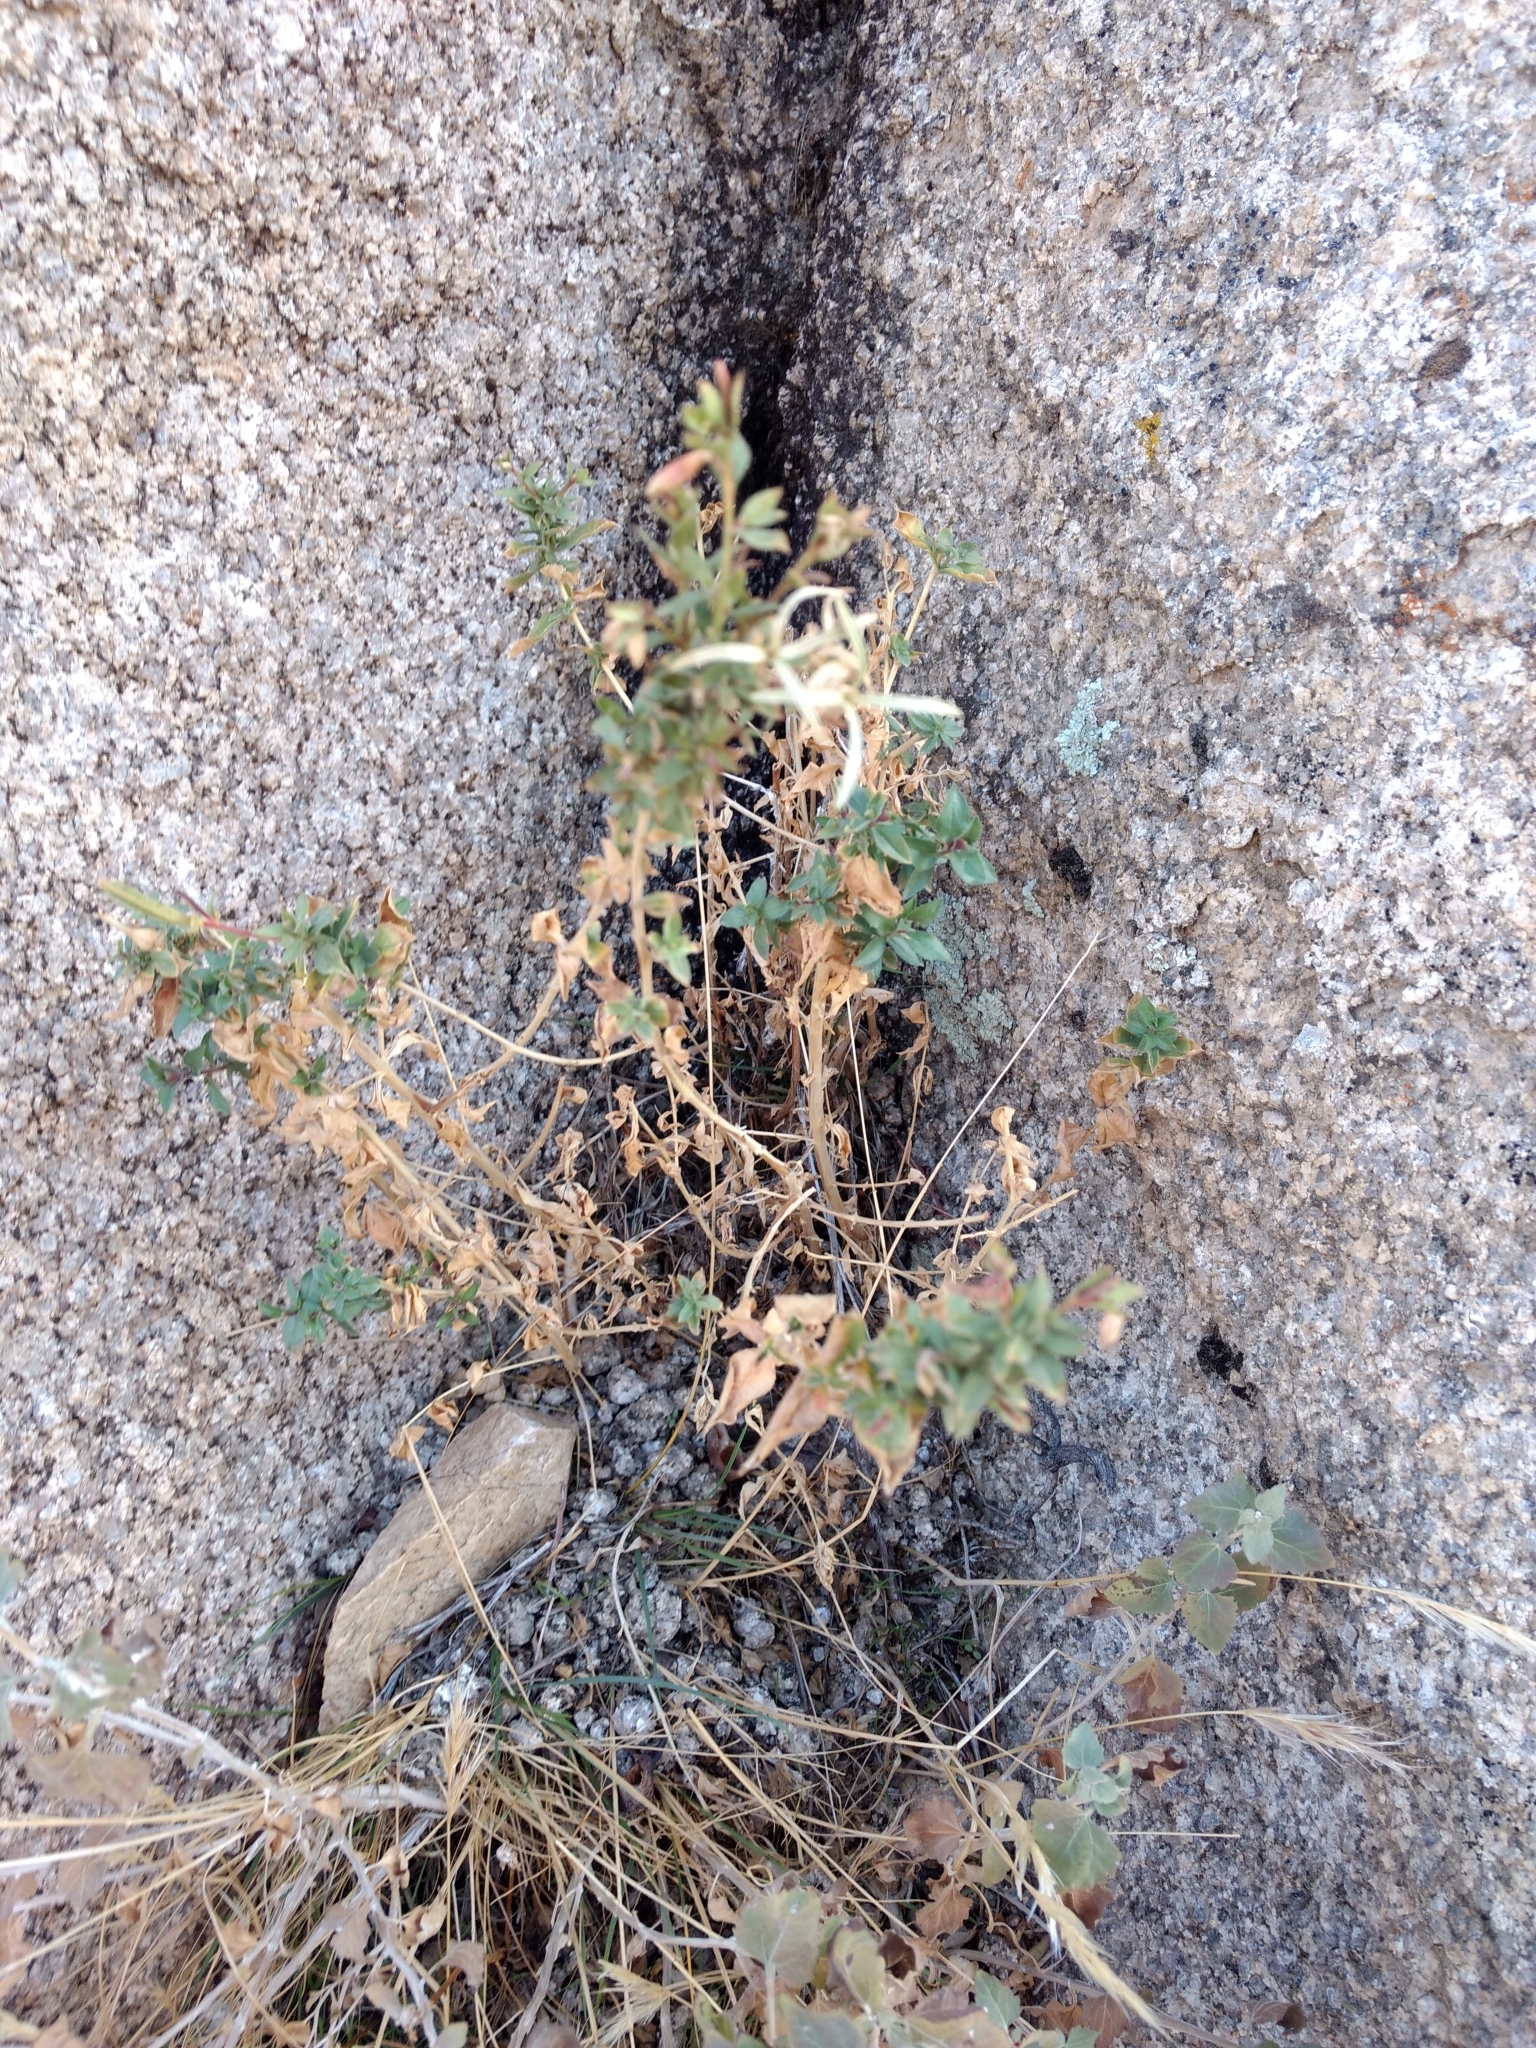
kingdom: Plantae
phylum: Tracheophyta
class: Magnoliopsida
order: Myrtales
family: Onagraceae
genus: Epilobium
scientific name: Epilobium canum
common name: California-fuchsia
